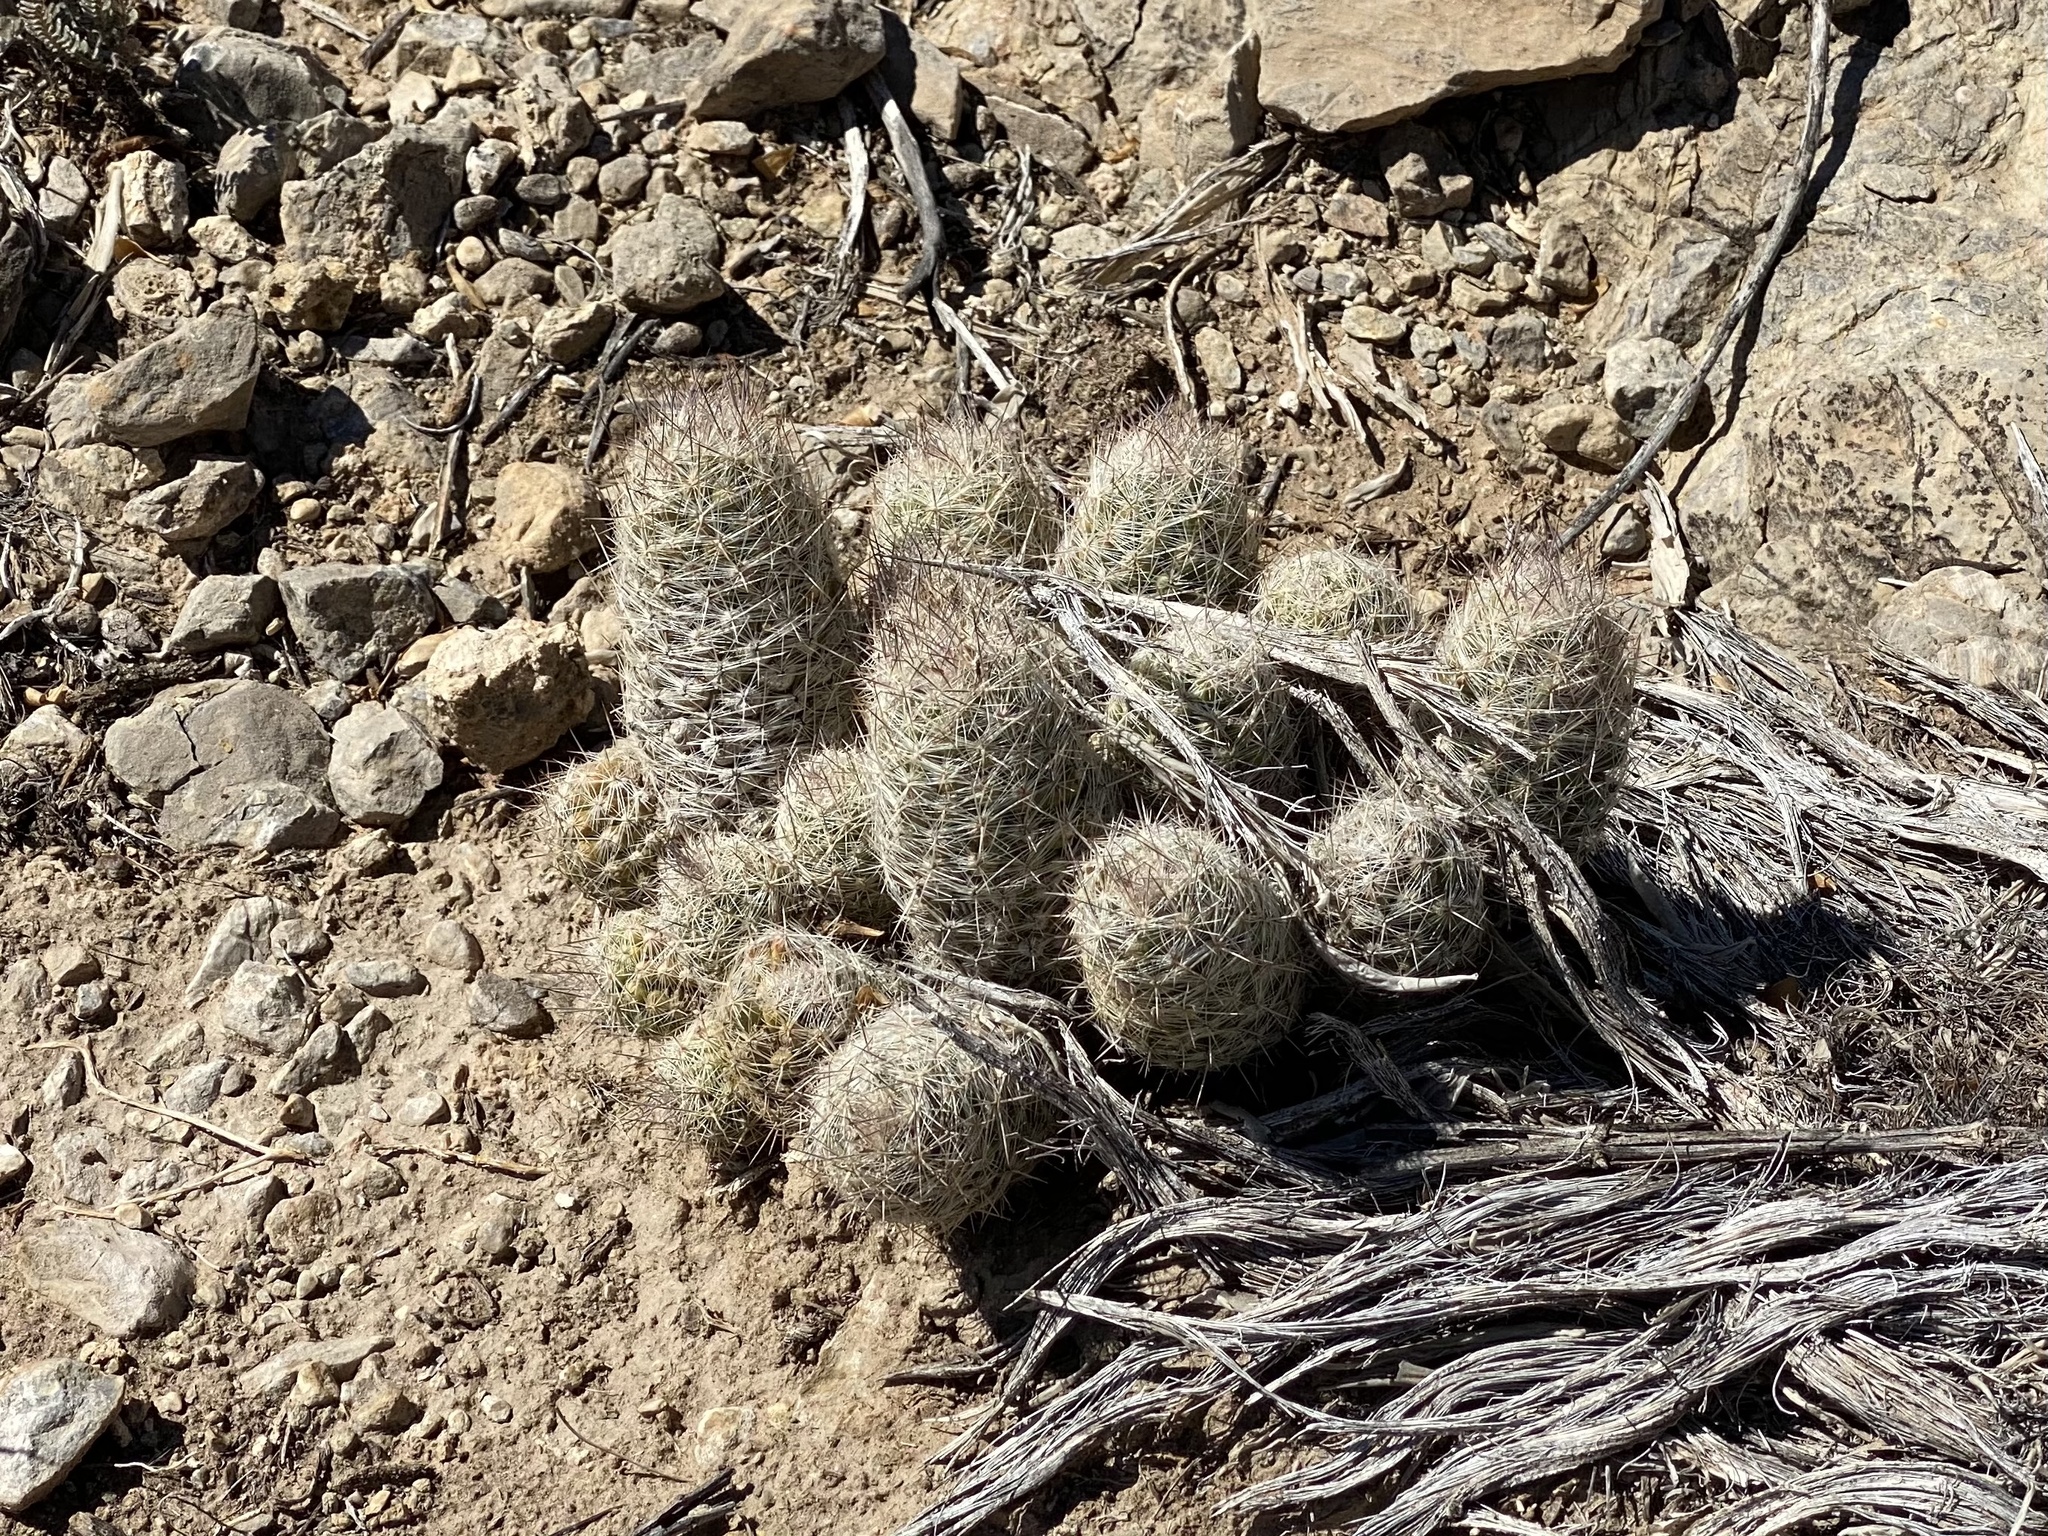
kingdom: Plantae
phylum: Tracheophyta
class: Magnoliopsida
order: Caryophyllales
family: Cactaceae
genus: Pelecyphora
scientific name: Pelecyphora tuberculosa
